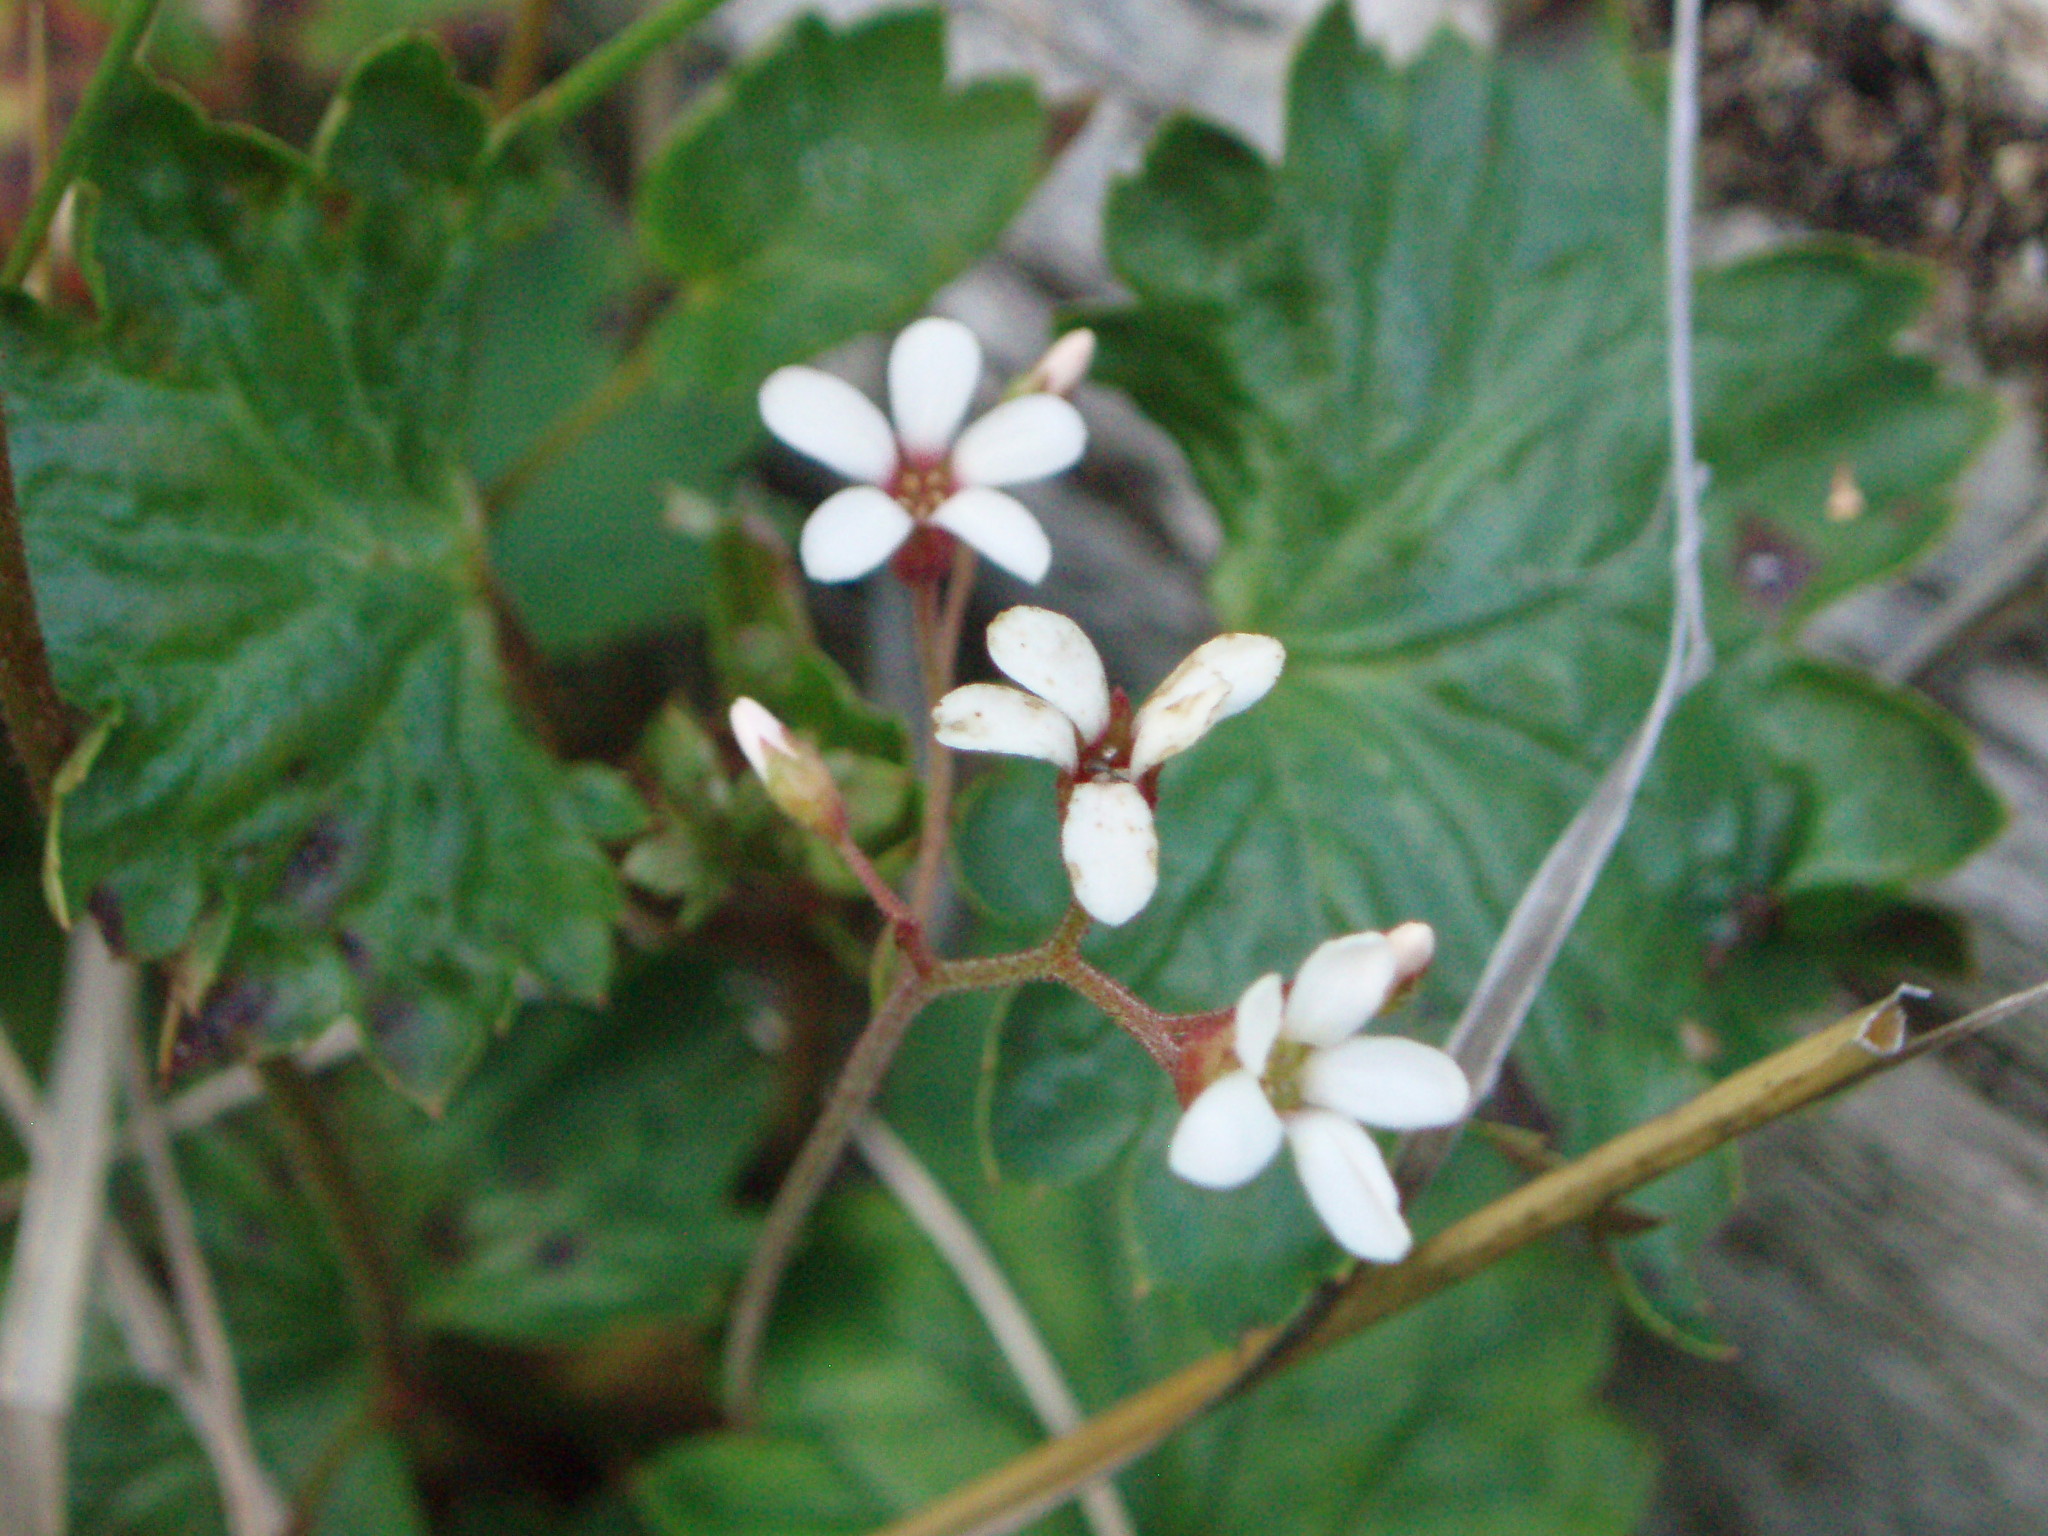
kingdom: Plantae
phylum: Tracheophyta
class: Magnoliopsida
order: Saxifragales
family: Saxifragaceae
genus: Boykinia
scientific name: Boykinia occidentalis
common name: Coast boykinia
